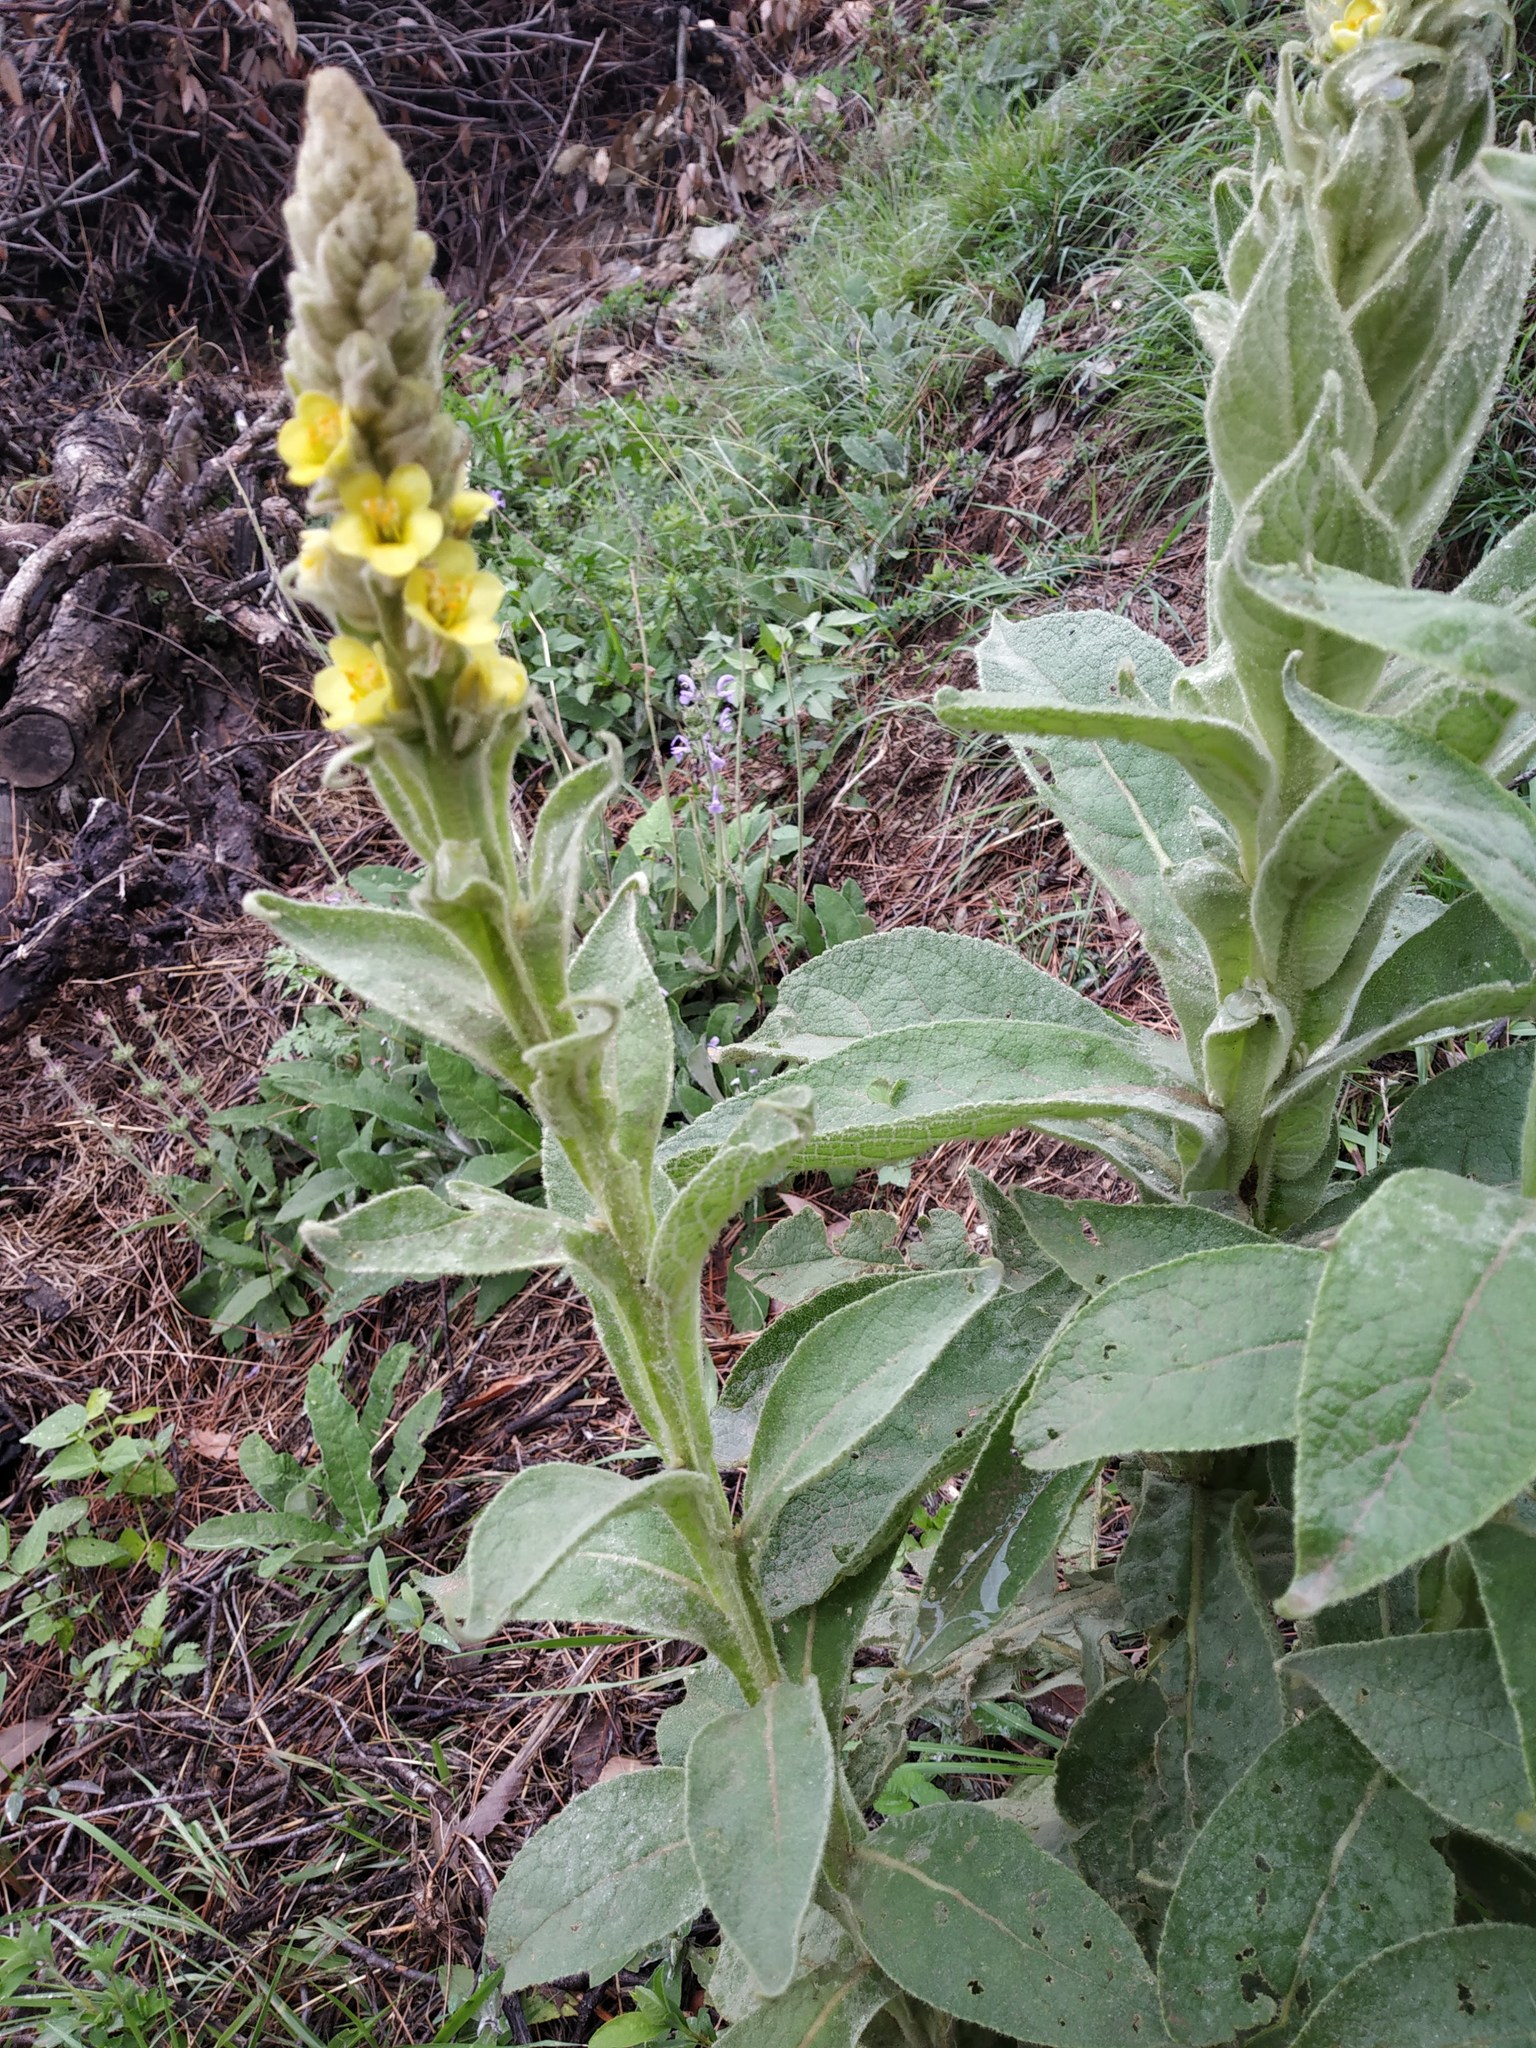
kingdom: Plantae
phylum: Tracheophyta
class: Magnoliopsida
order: Lamiales
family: Scrophulariaceae
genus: Verbascum
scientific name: Verbascum thapsus
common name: Common mullein
